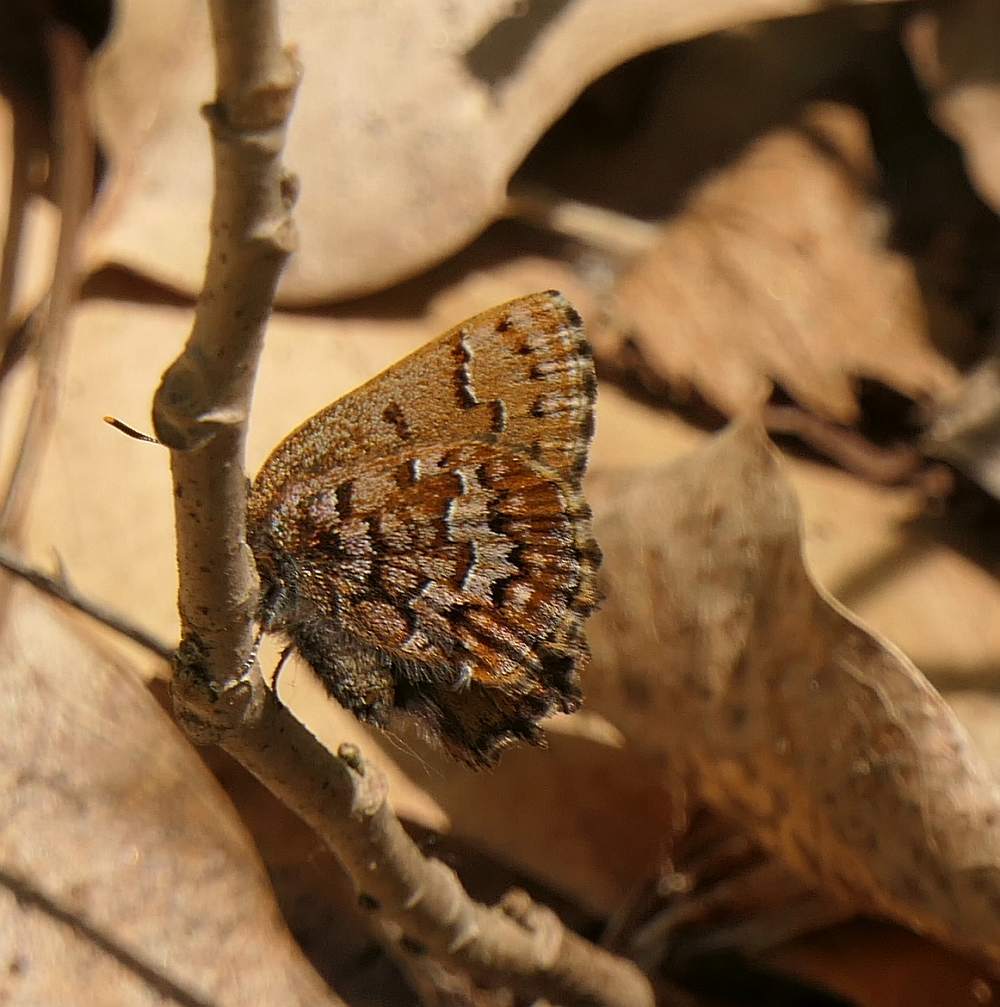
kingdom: Animalia
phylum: Arthropoda
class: Insecta
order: Lepidoptera
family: Lycaenidae
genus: Incisalia
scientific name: Incisalia niphon
